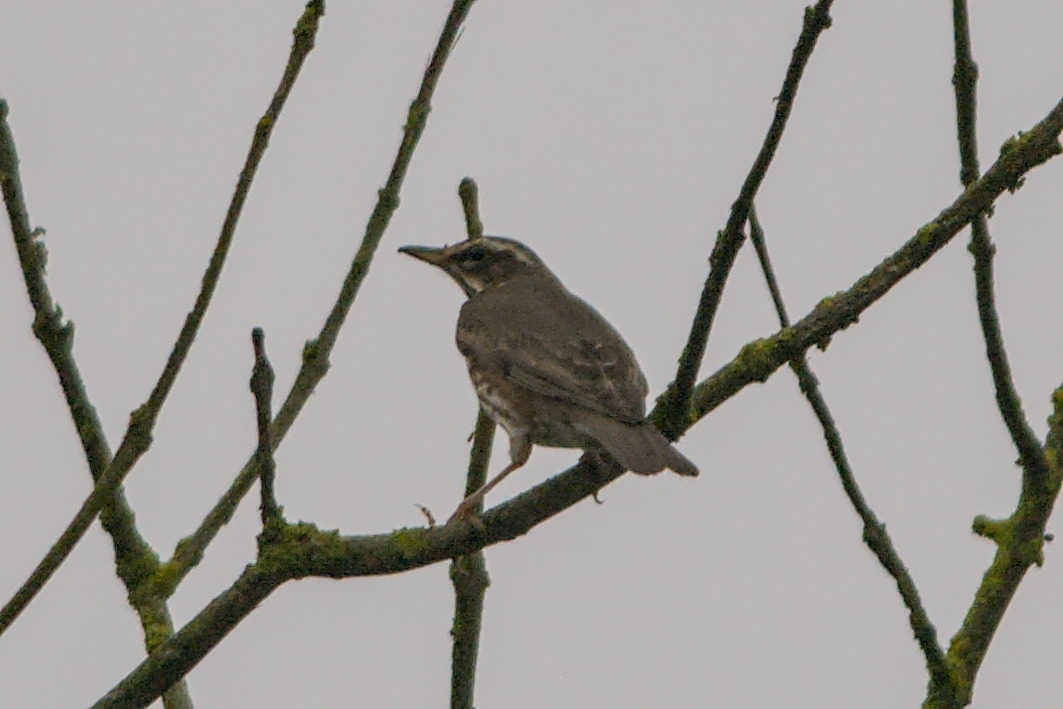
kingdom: Animalia
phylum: Chordata
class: Aves
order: Passeriformes
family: Turdidae
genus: Turdus
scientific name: Turdus iliacus
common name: Redwing
